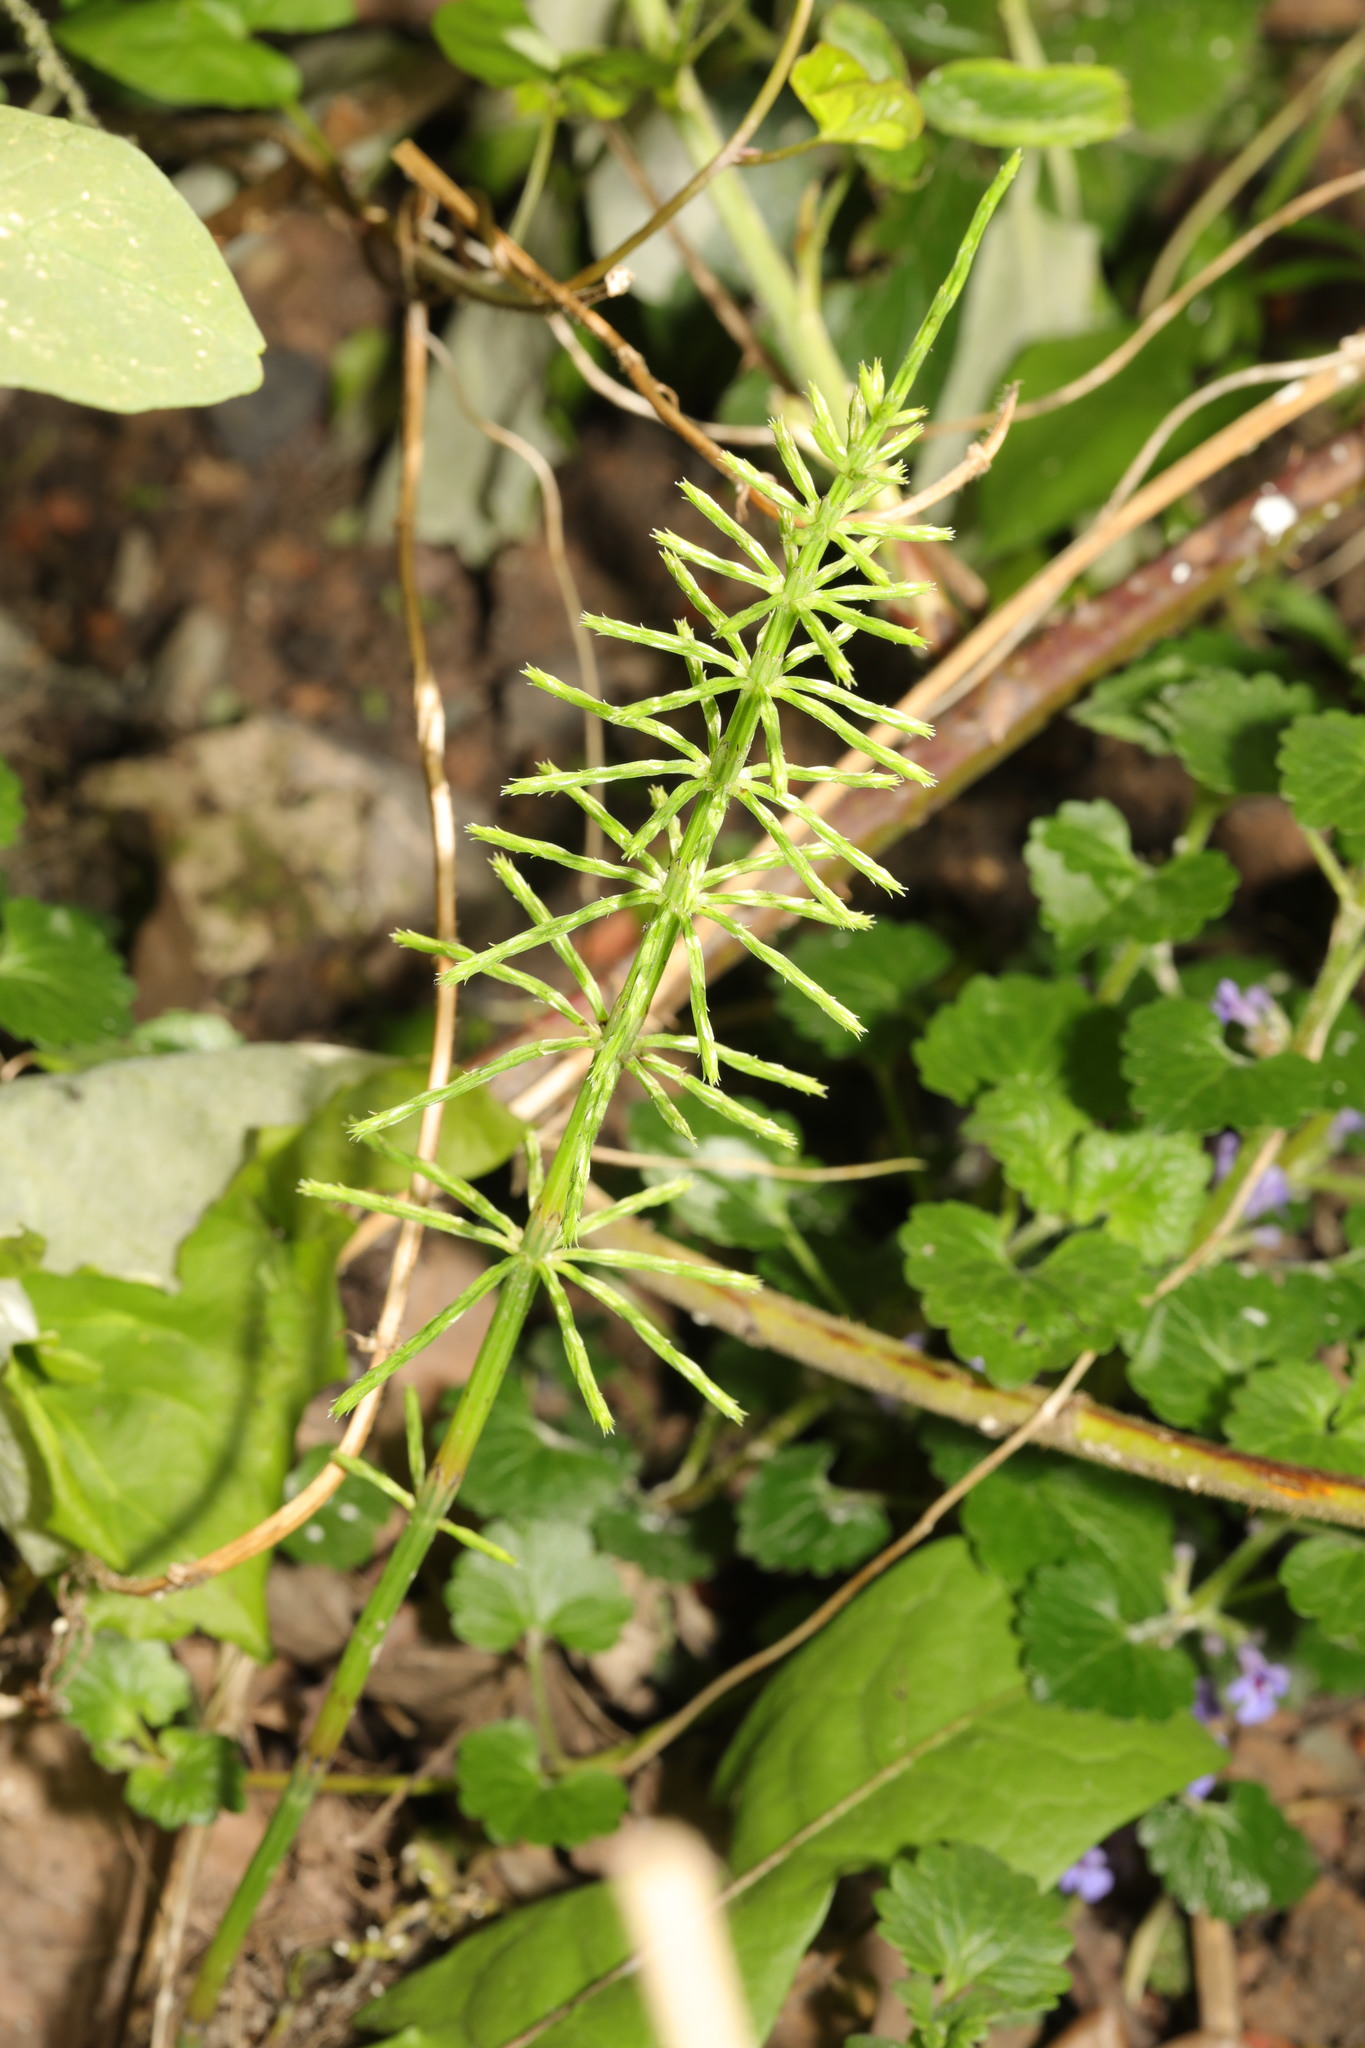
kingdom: Plantae
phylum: Tracheophyta
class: Polypodiopsida
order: Equisetales
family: Equisetaceae
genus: Equisetum
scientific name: Equisetum arvense
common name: Field horsetail
